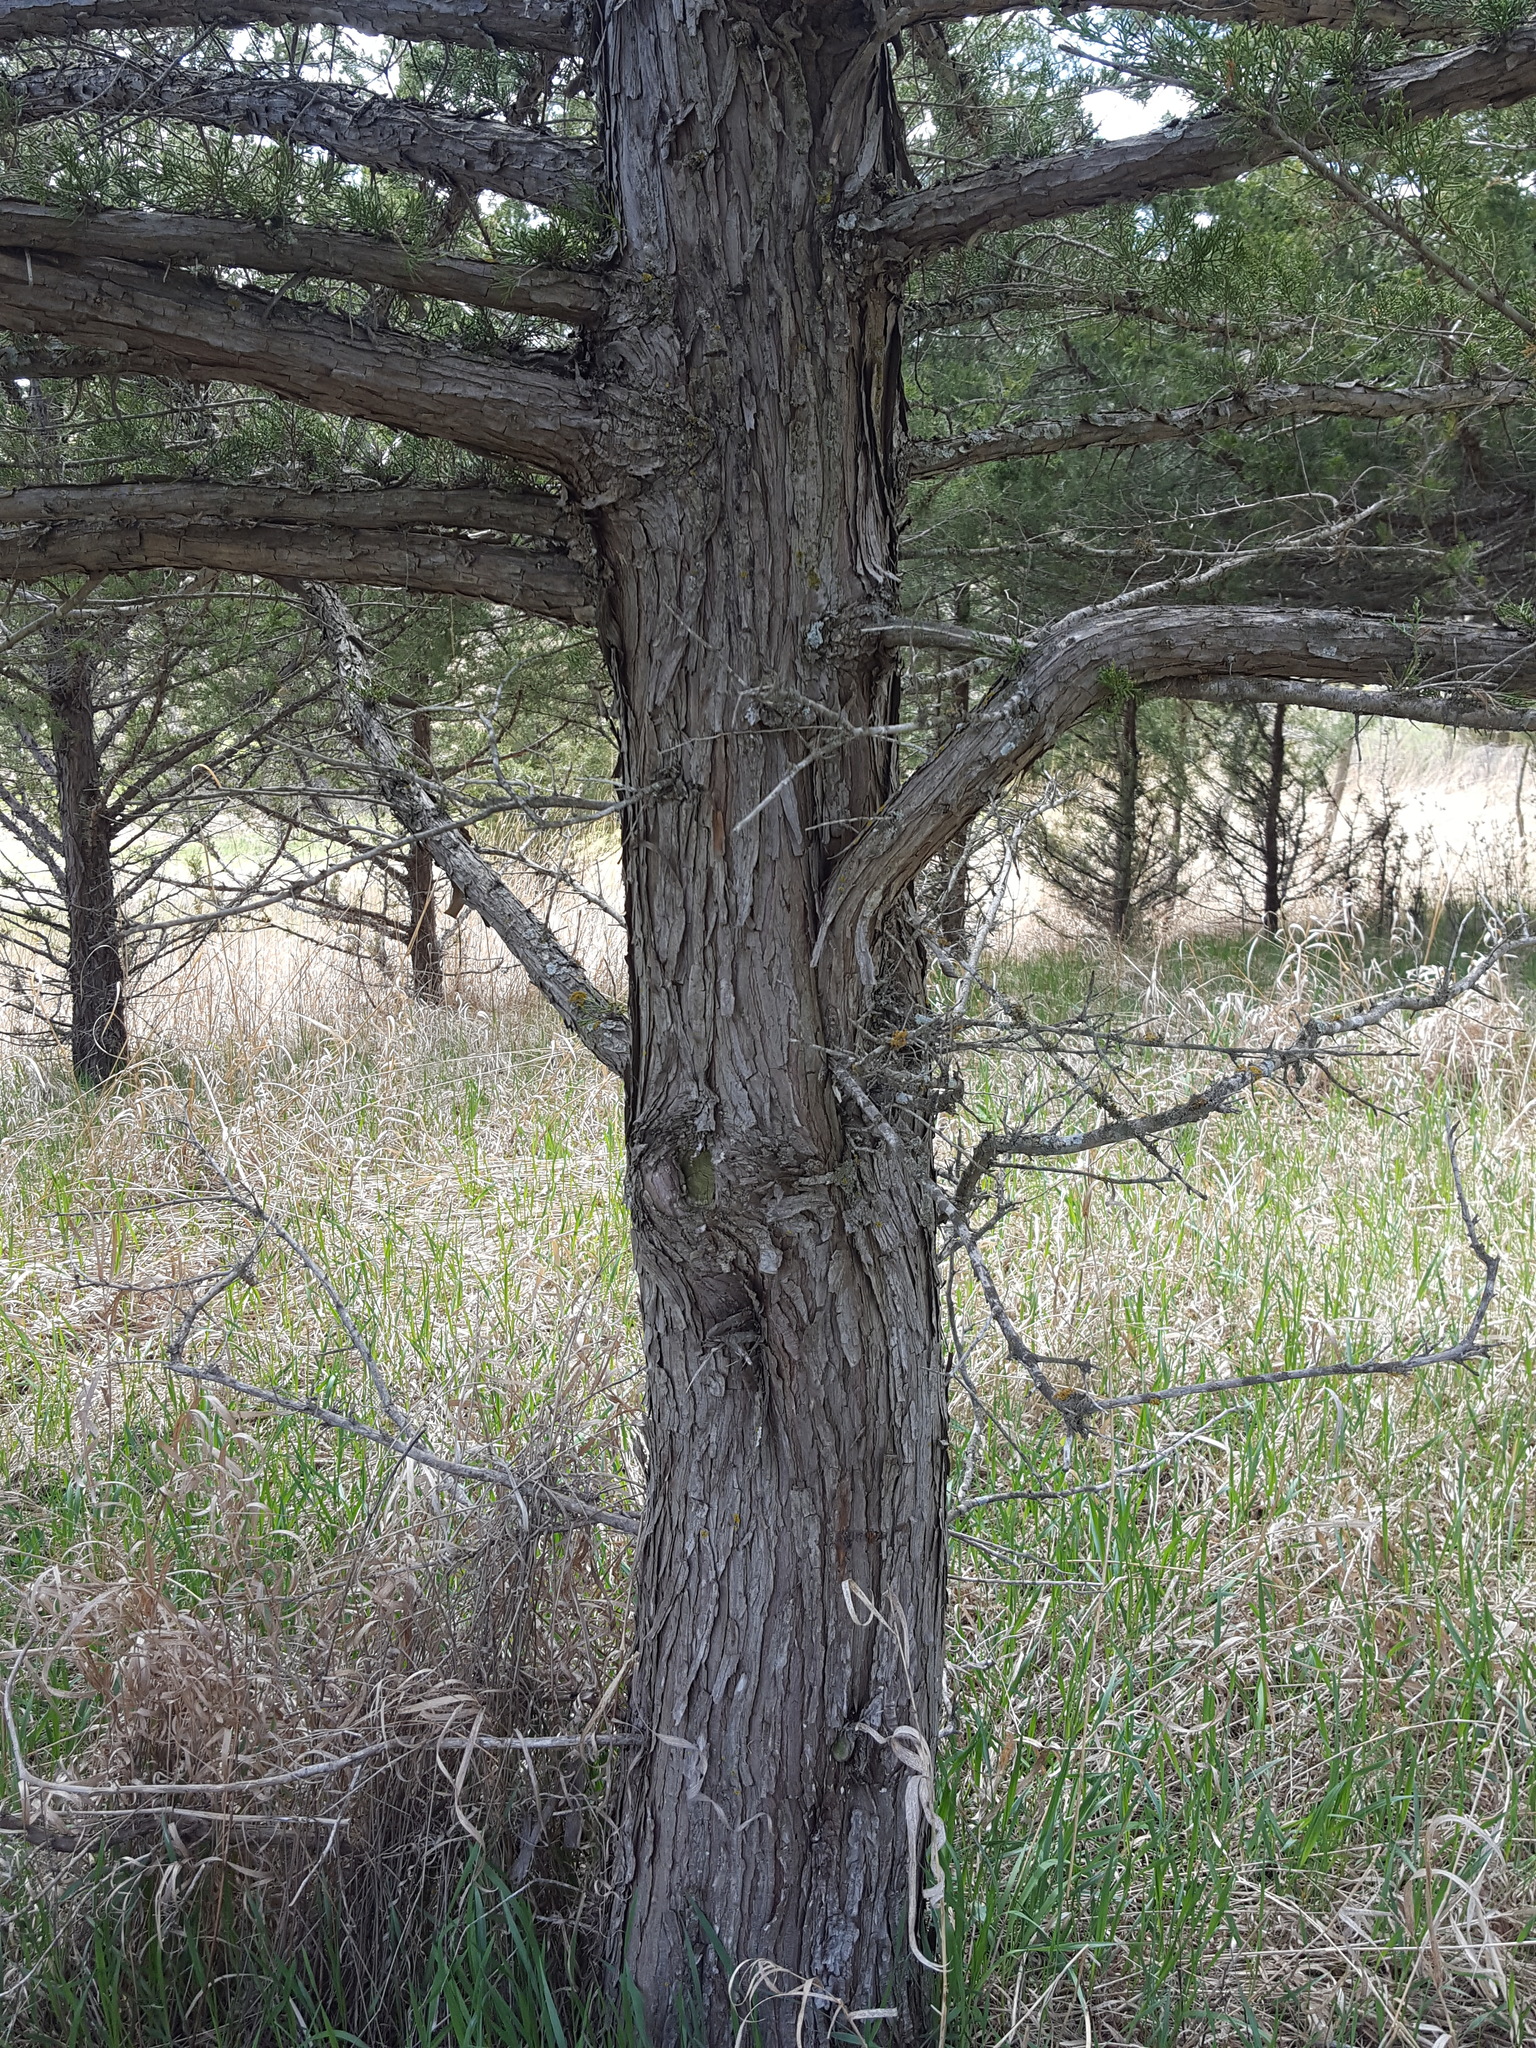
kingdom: Plantae
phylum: Tracheophyta
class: Pinopsida
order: Pinales
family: Cupressaceae
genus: Juniperus
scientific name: Juniperus virginiana
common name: Red juniper
